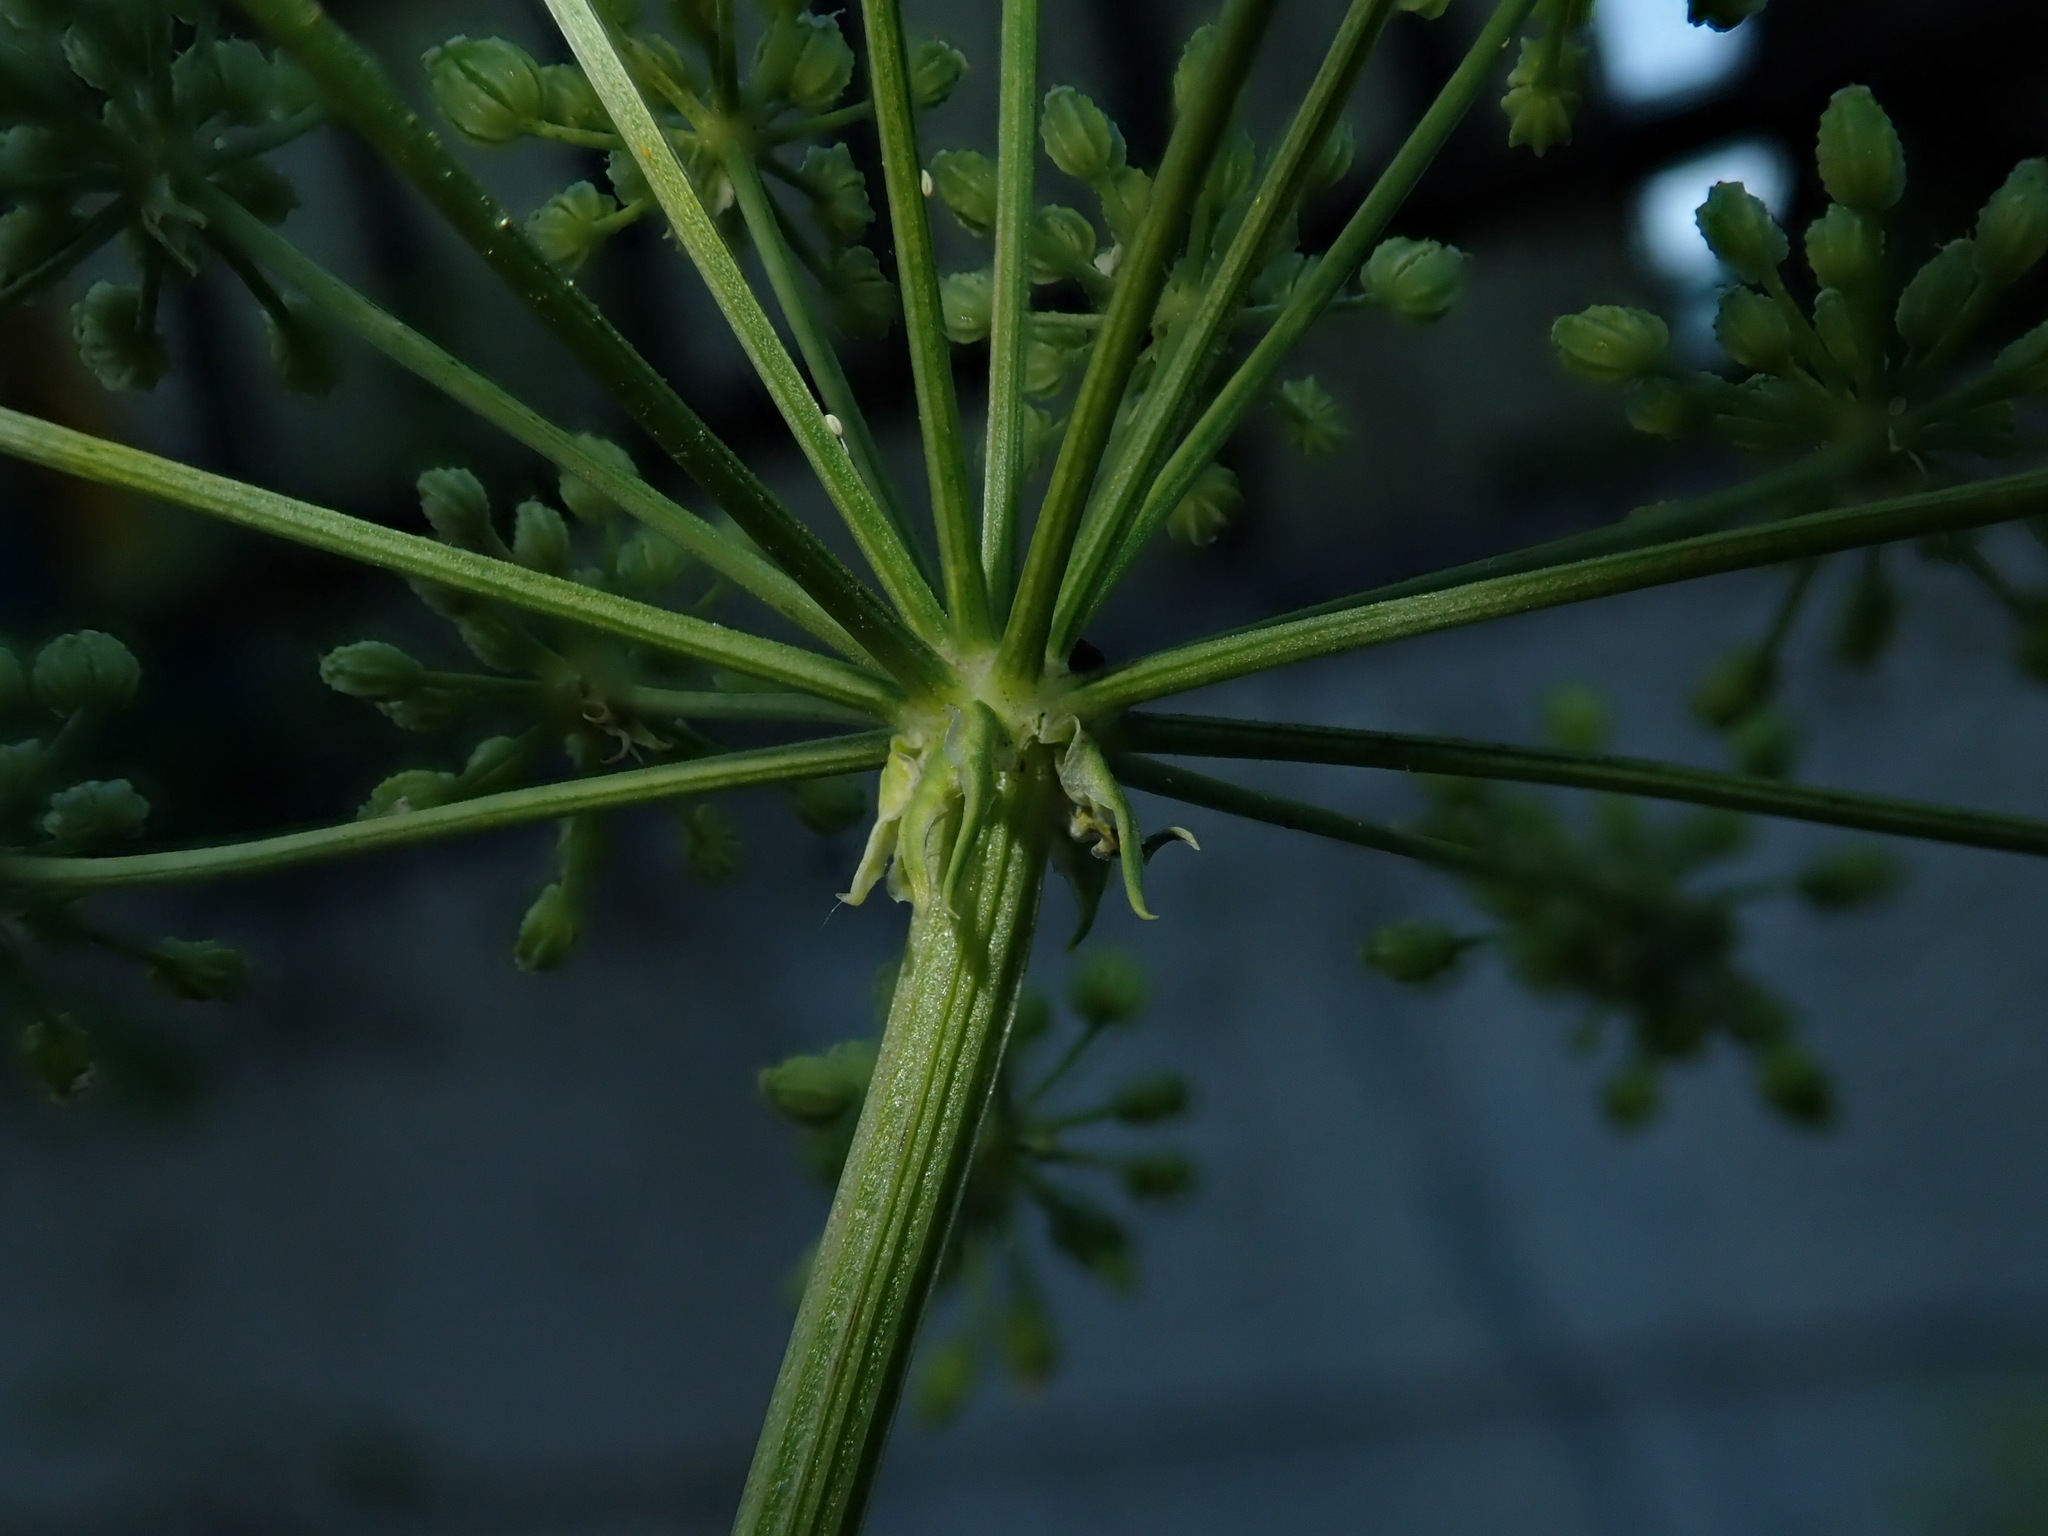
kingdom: Plantae
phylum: Tracheophyta
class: Magnoliopsida
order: Apiales
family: Apiaceae
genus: Conium
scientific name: Conium maculatum
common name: Hemlock
